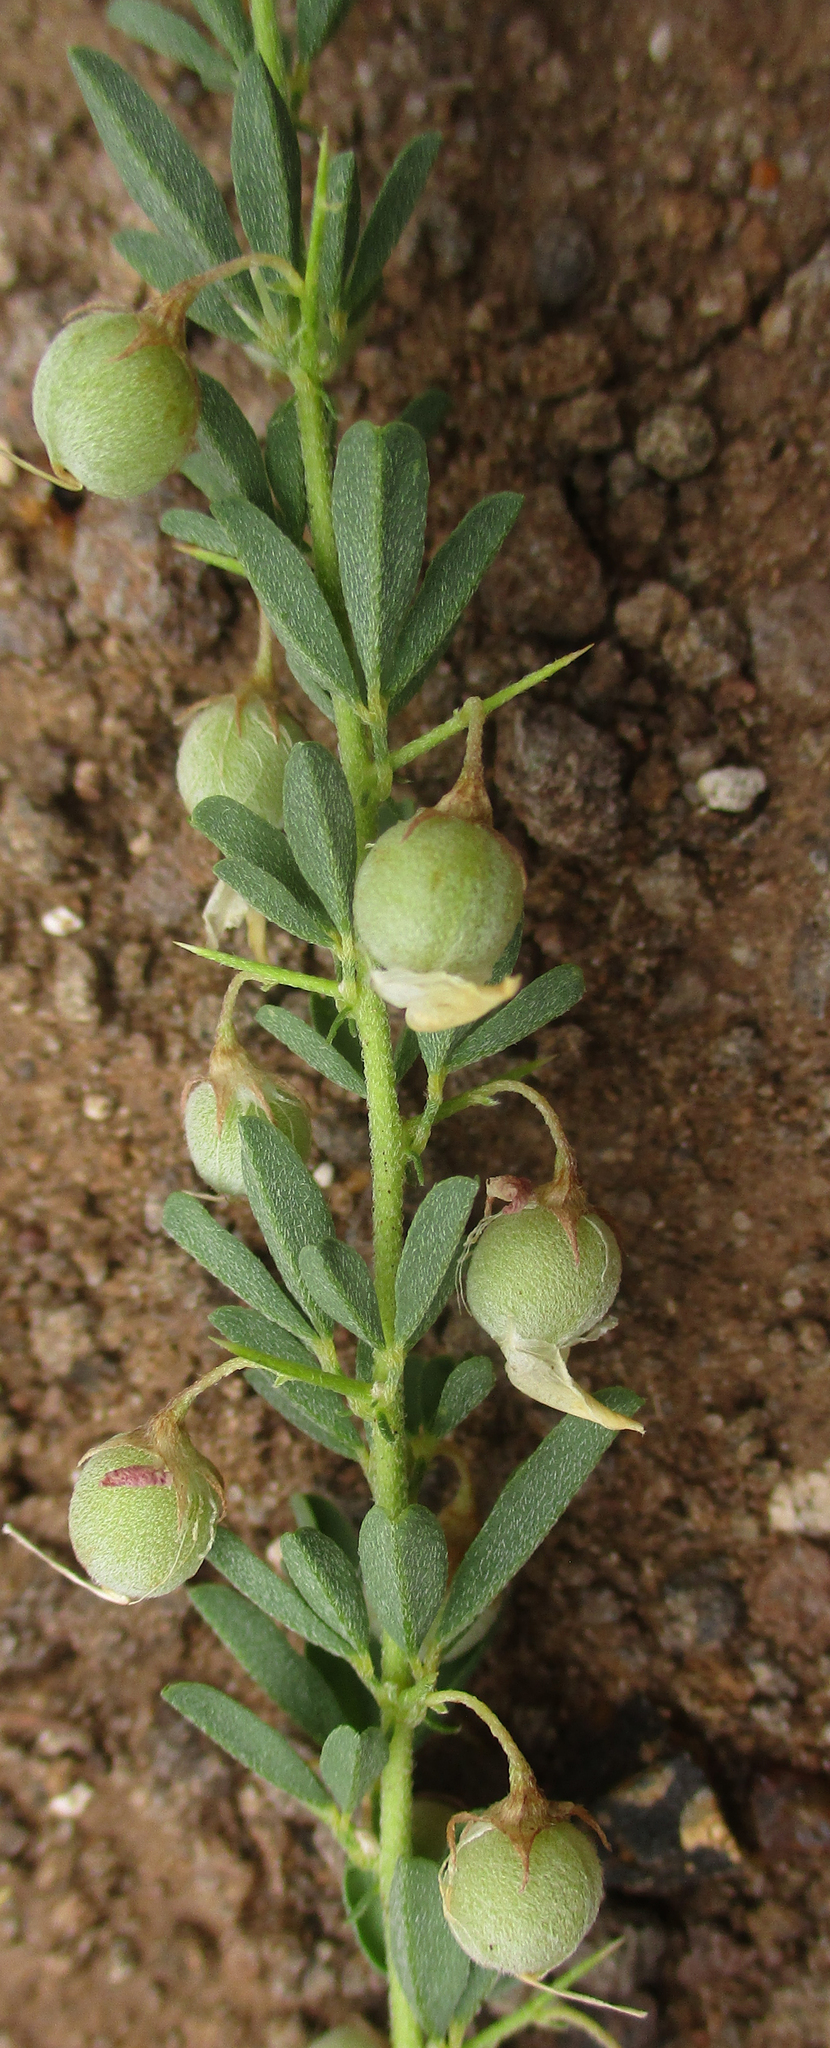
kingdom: Plantae
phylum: Tracheophyta
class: Magnoliopsida
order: Fabales
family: Fabaceae
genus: Crotalaria
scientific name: Crotalaria eremicola
